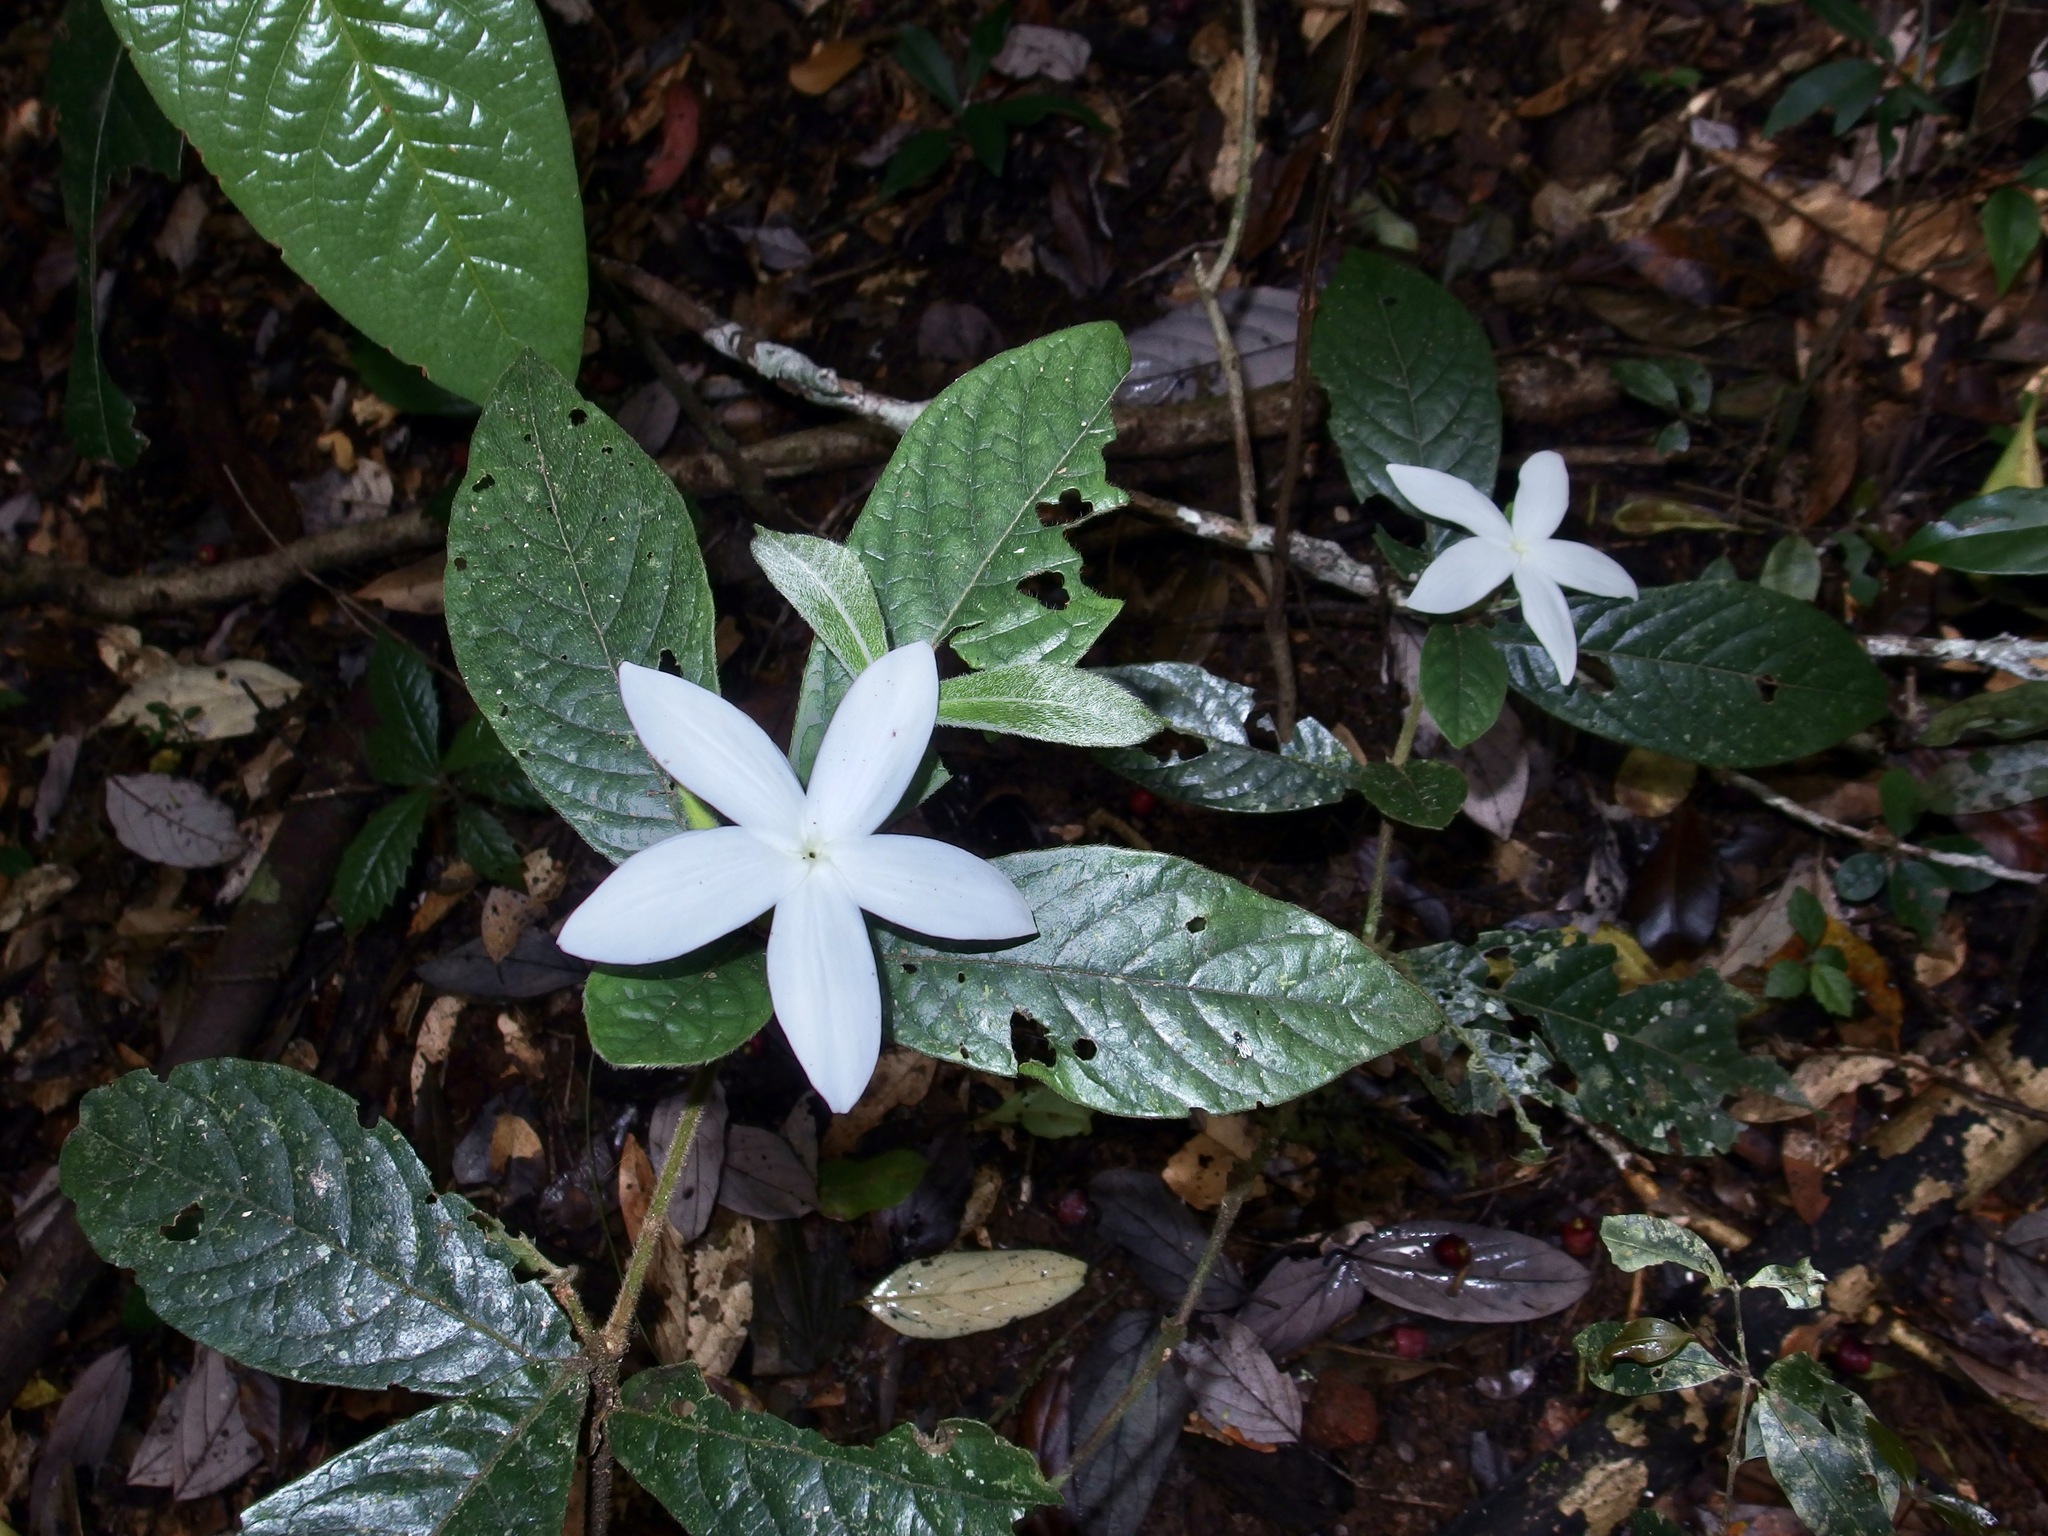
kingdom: Plantae
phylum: Tracheophyta
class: Magnoliopsida
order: Gentianales
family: Rubiaceae
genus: Atractocarpus
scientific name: Atractocarpus hirtus
